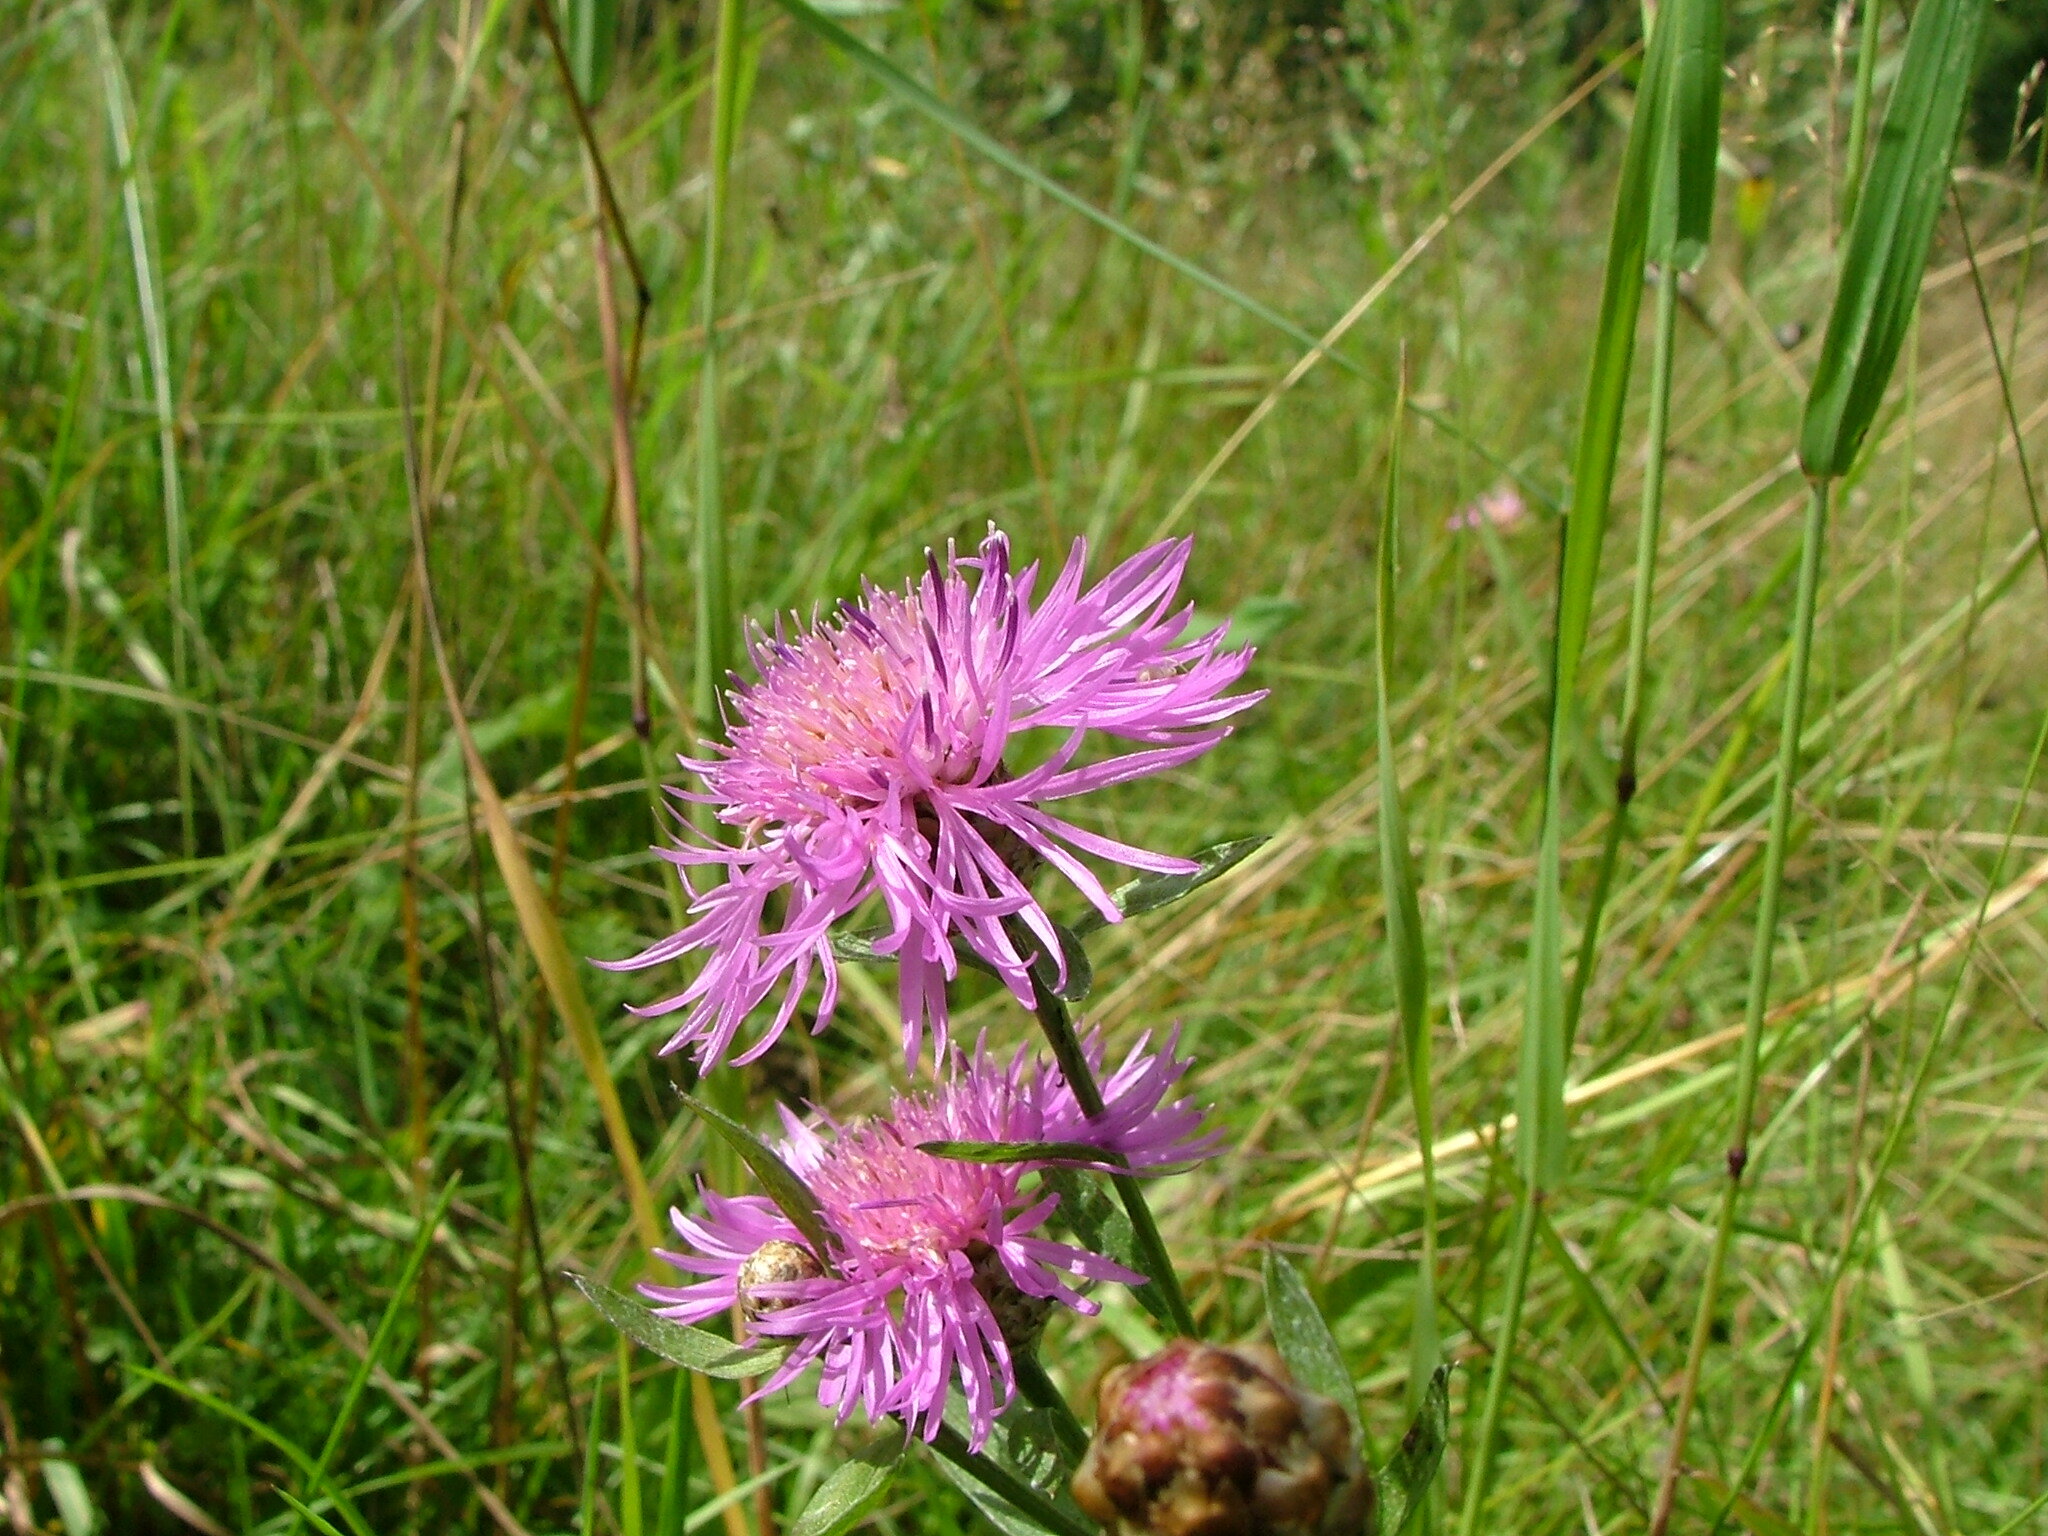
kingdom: Plantae
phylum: Tracheophyta
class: Magnoliopsida
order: Asterales
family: Asteraceae
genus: Centaurea
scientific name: Centaurea jacea
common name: Brown knapweed
